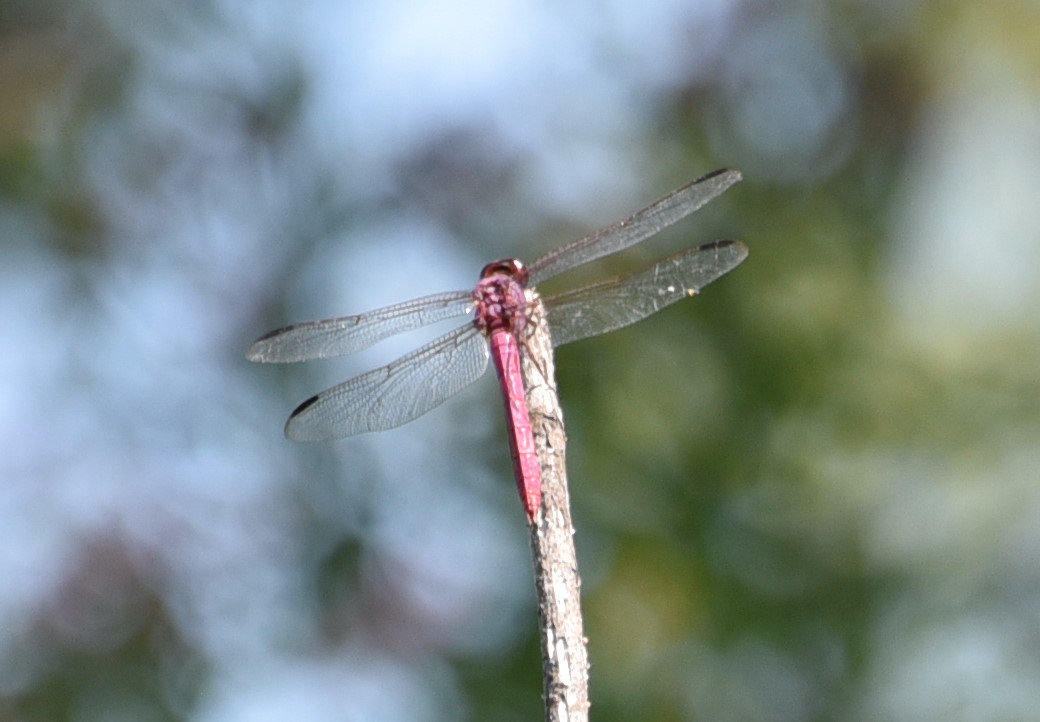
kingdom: Animalia
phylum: Arthropoda
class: Insecta
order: Odonata
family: Libellulidae
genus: Orthemis
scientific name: Orthemis ferruginea
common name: Roseate skimmer
